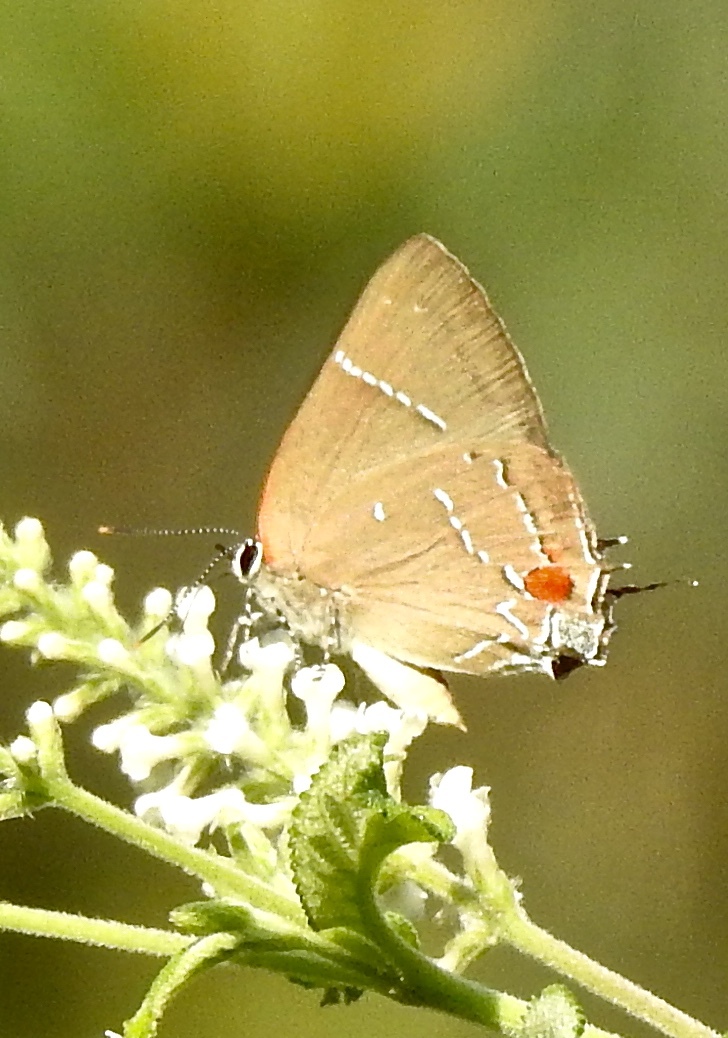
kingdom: Animalia
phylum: Arthropoda
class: Insecta
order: Lepidoptera
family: Lycaenidae
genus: Parrhasius
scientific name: Parrhasius m-album
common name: White m hairstreak
